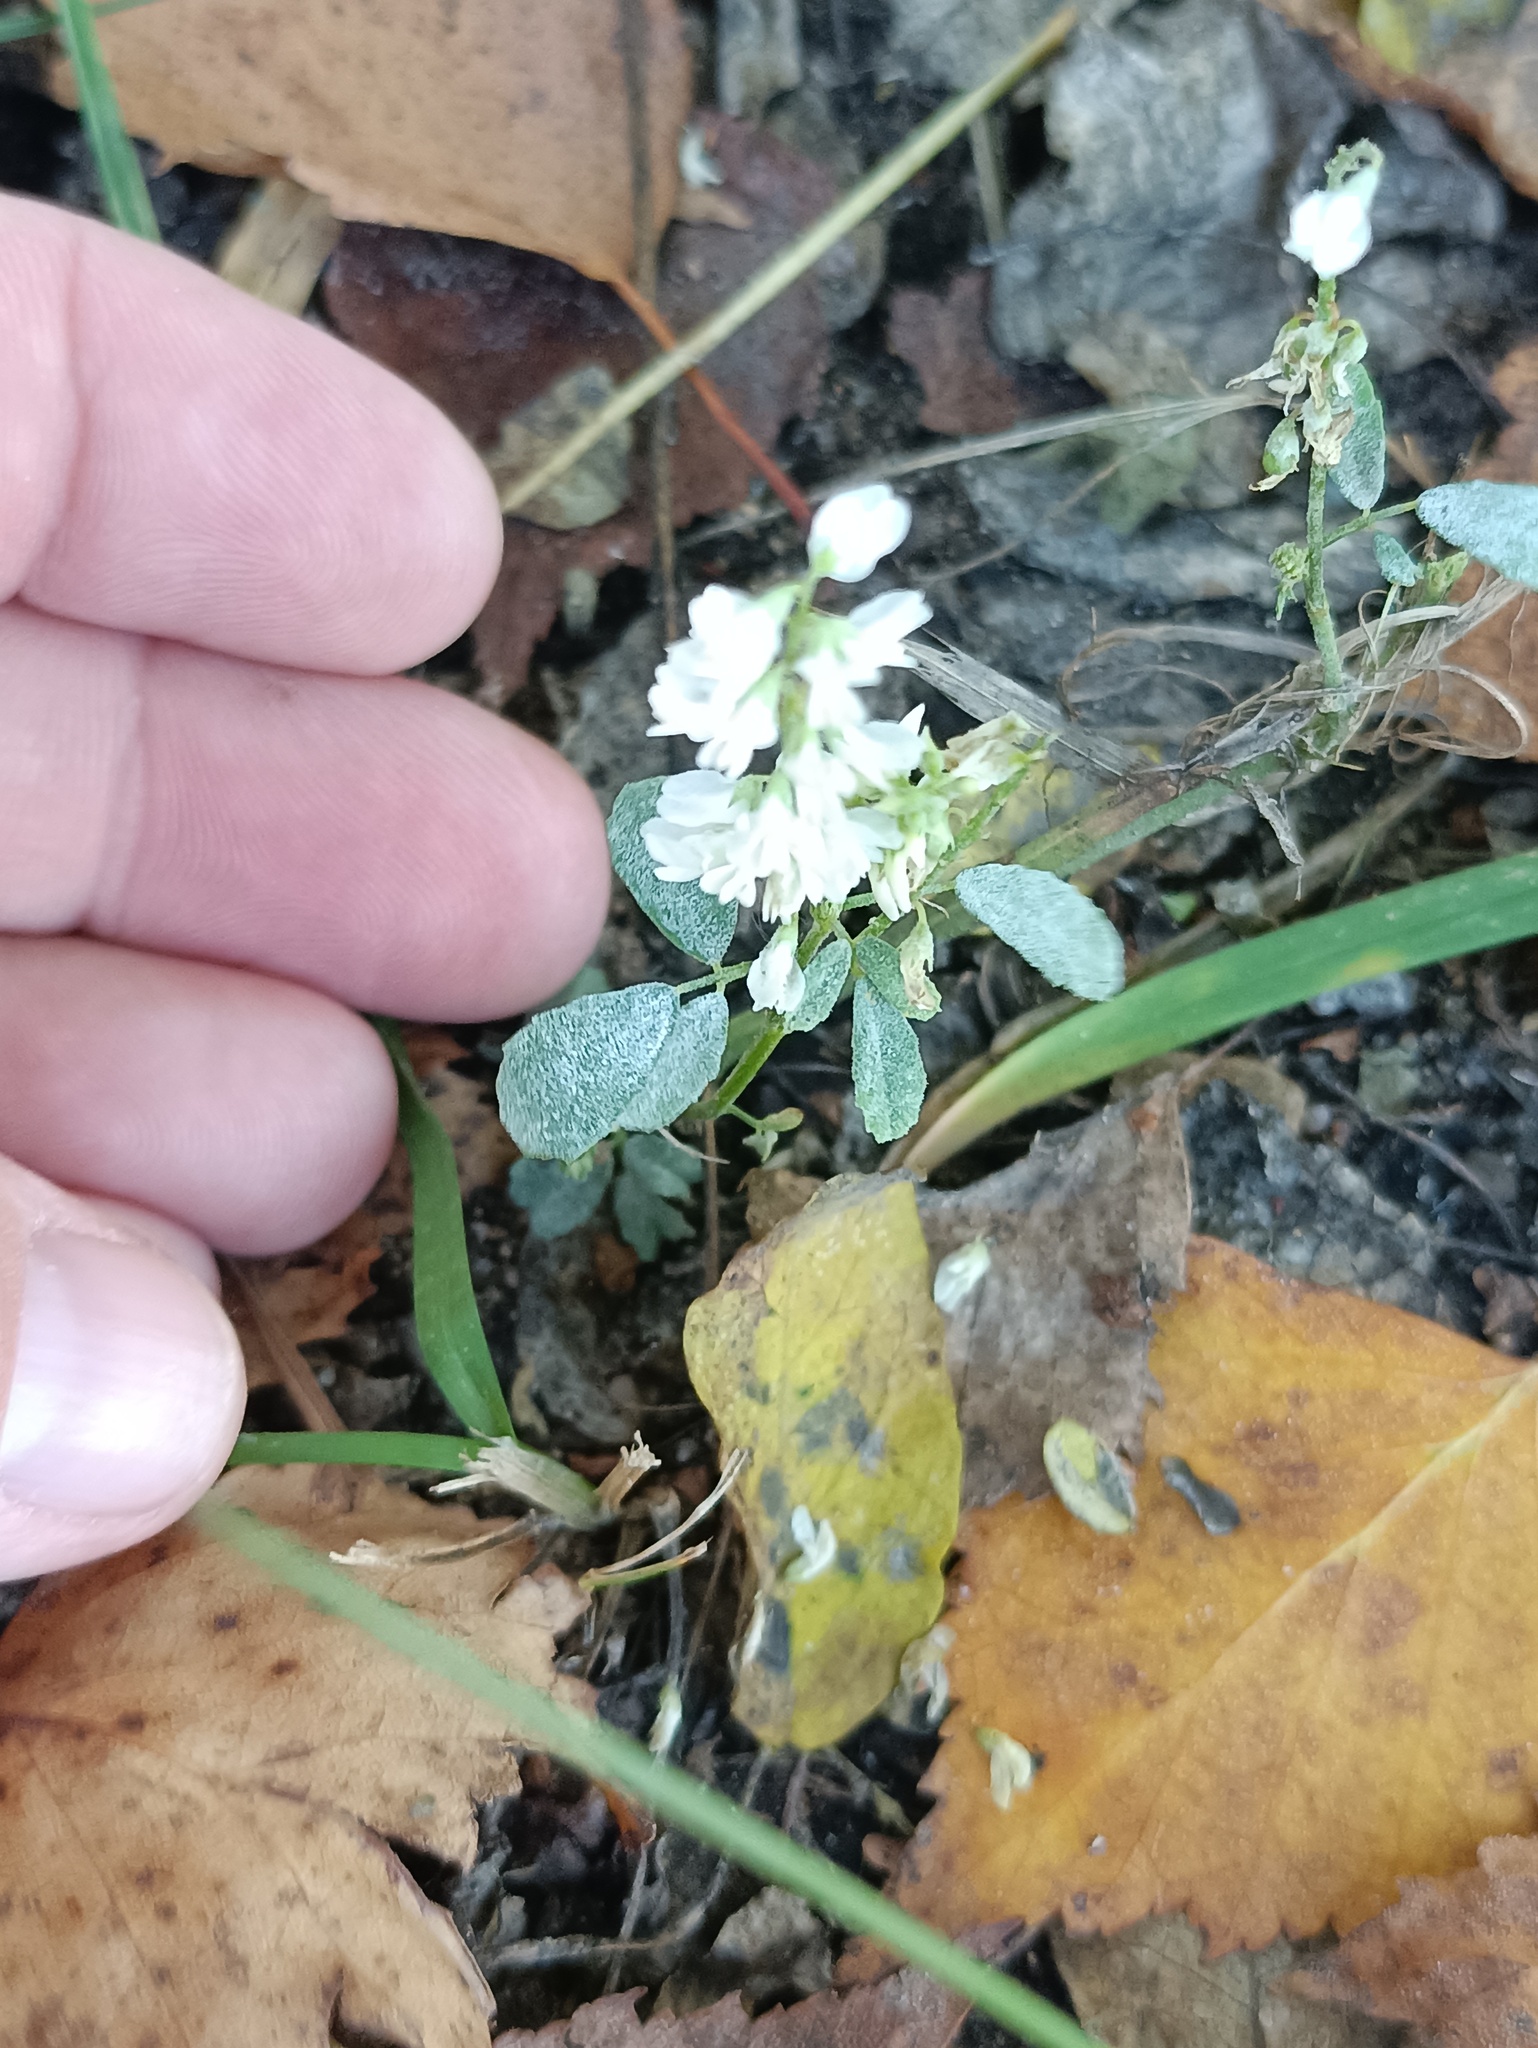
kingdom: Plantae
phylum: Tracheophyta
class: Magnoliopsida
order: Fabales
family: Fabaceae
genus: Melilotus
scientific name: Melilotus albus
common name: White melilot
